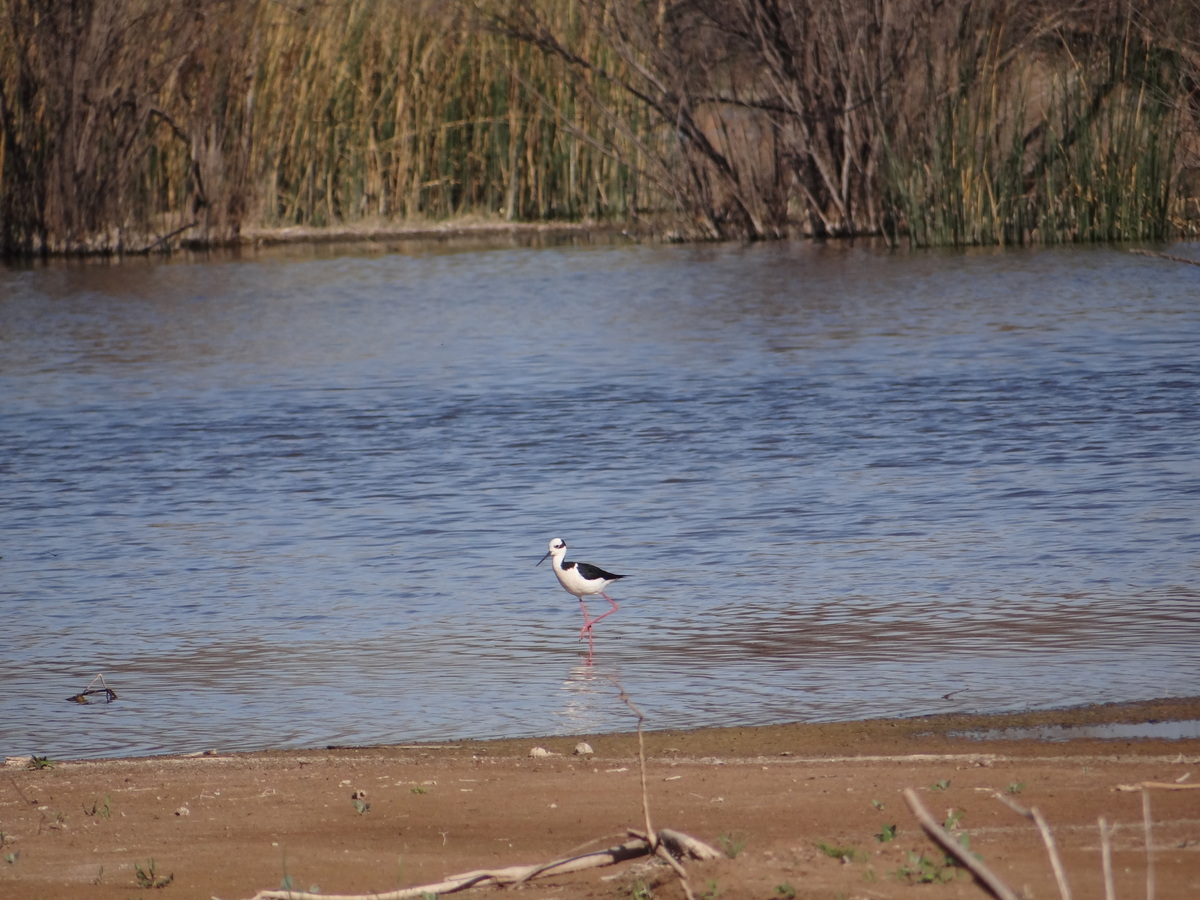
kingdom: Animalia
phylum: Chordata
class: Aves
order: Charadriiformes
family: Recurvirostridae
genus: Himantopus
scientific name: Himantopus mexicanus
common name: Black-necked stilt
